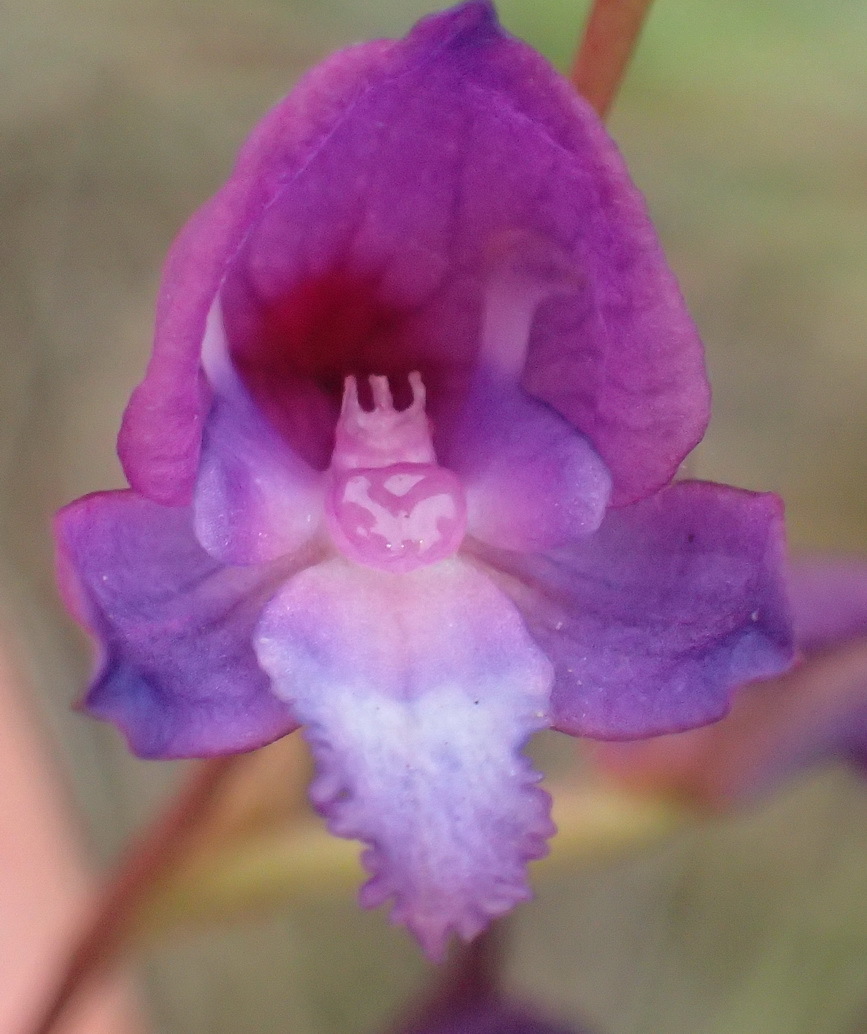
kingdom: Plantae
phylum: Tracheophyta
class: Liliopsida
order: Asparagales
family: Orchidaceae
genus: Disa
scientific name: Disa hians
